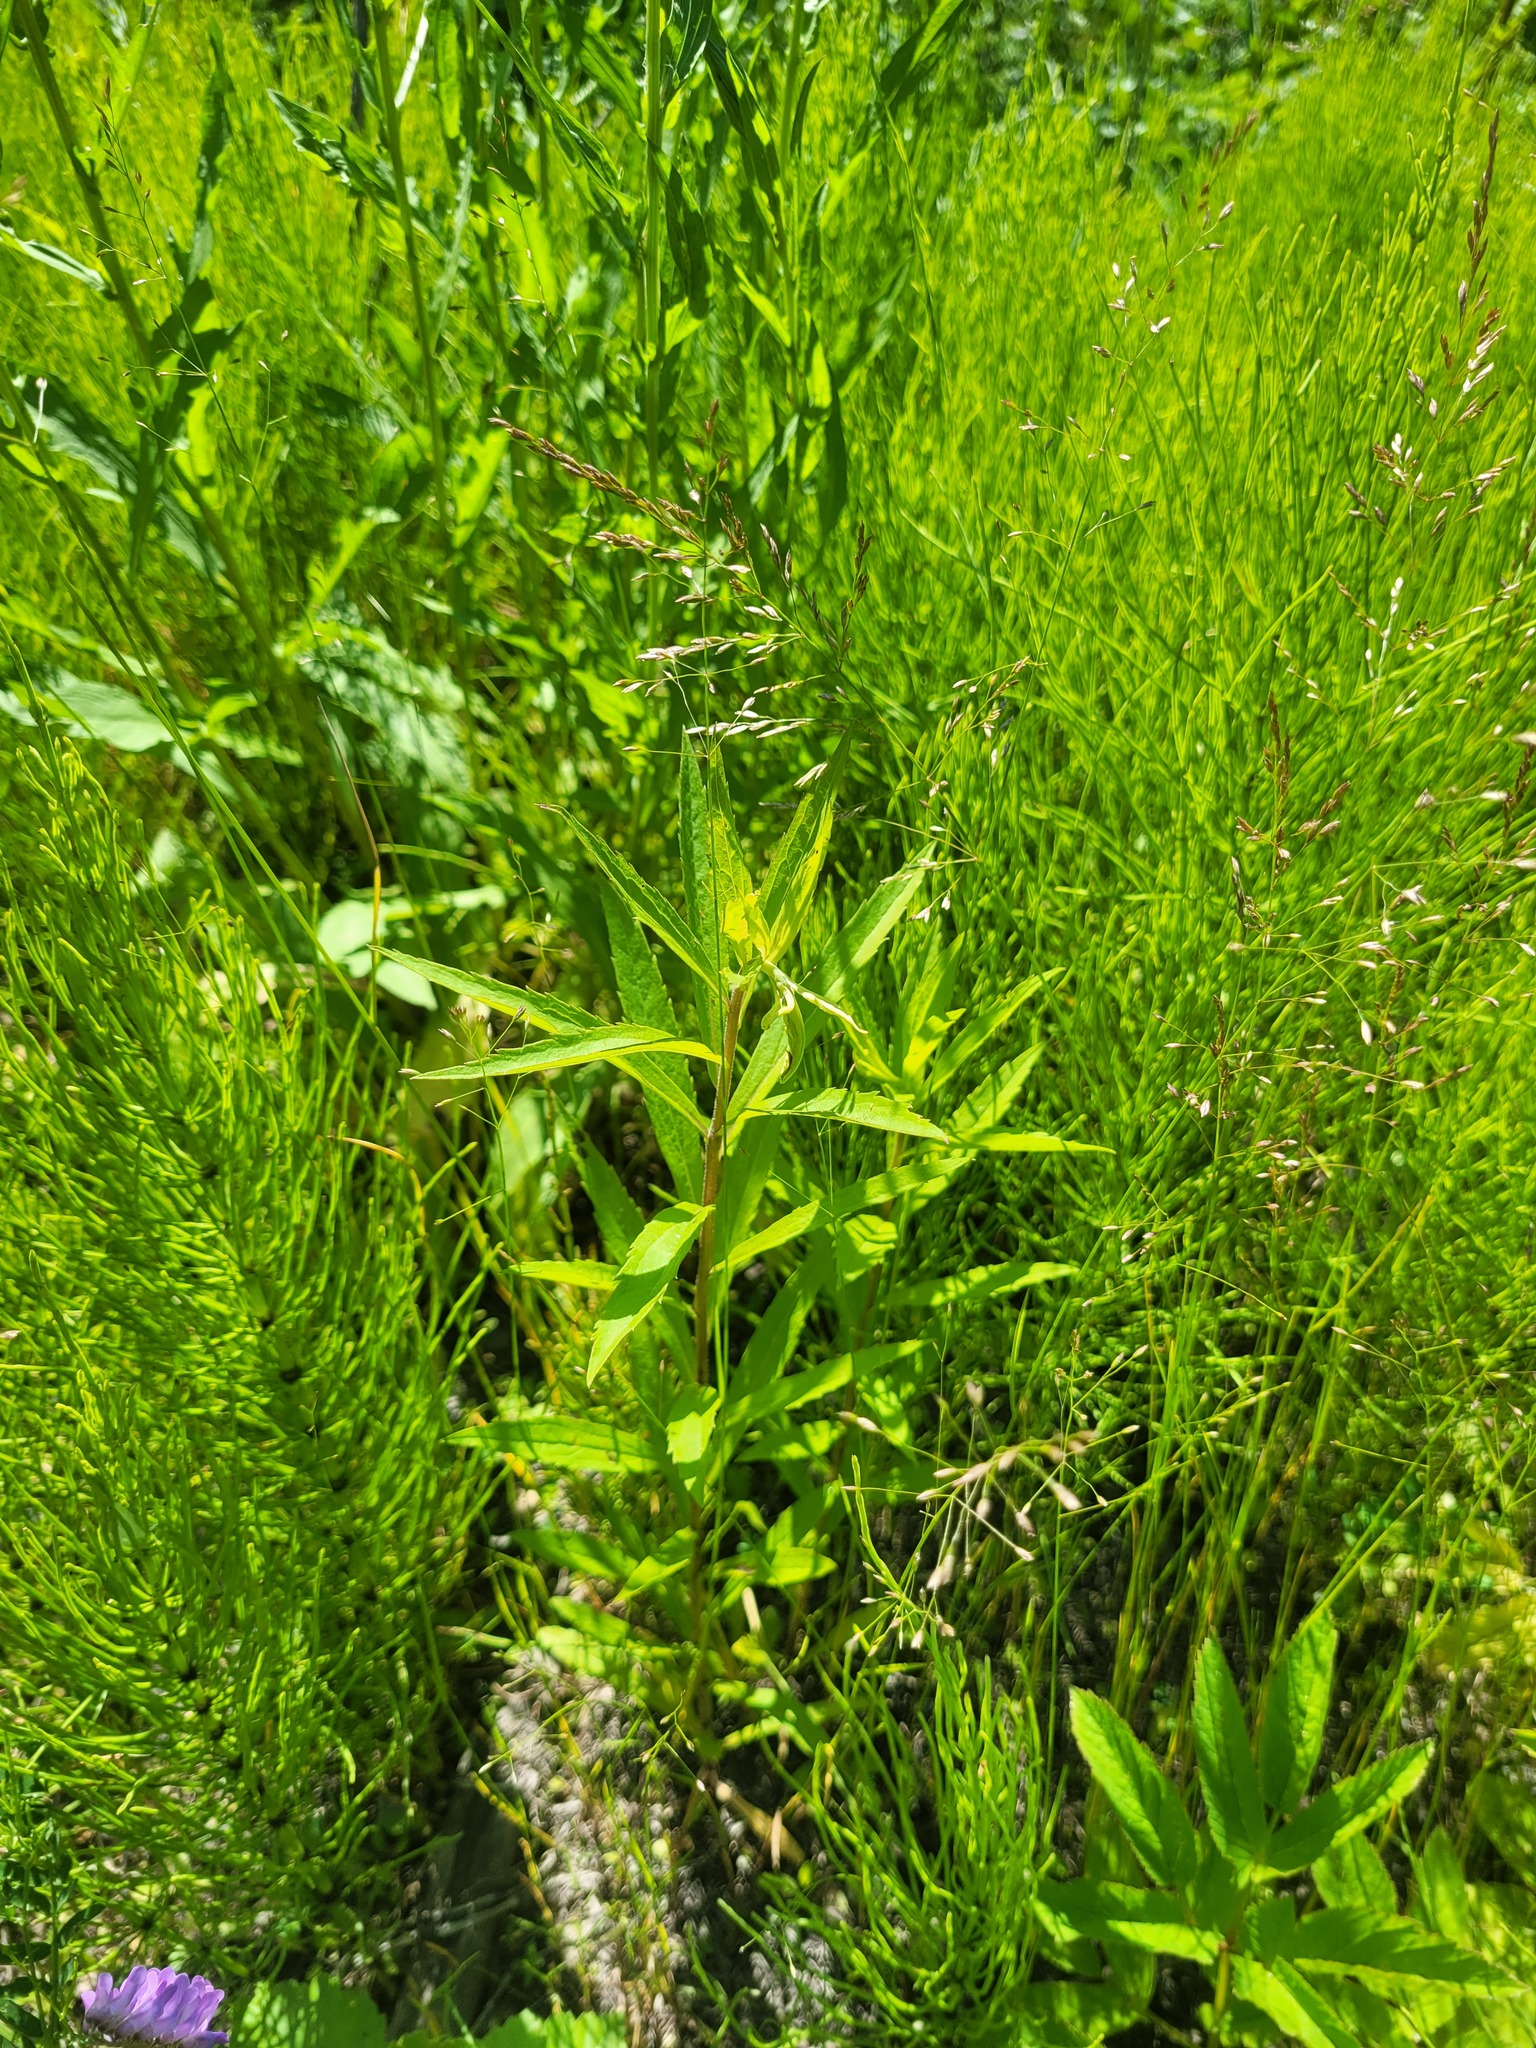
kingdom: Plantae
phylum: Tracheophyta
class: Magnoliopsida
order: Asterales
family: Asteraceae
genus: Solidago
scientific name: Solidago canadensis
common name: Canada goldenrod
